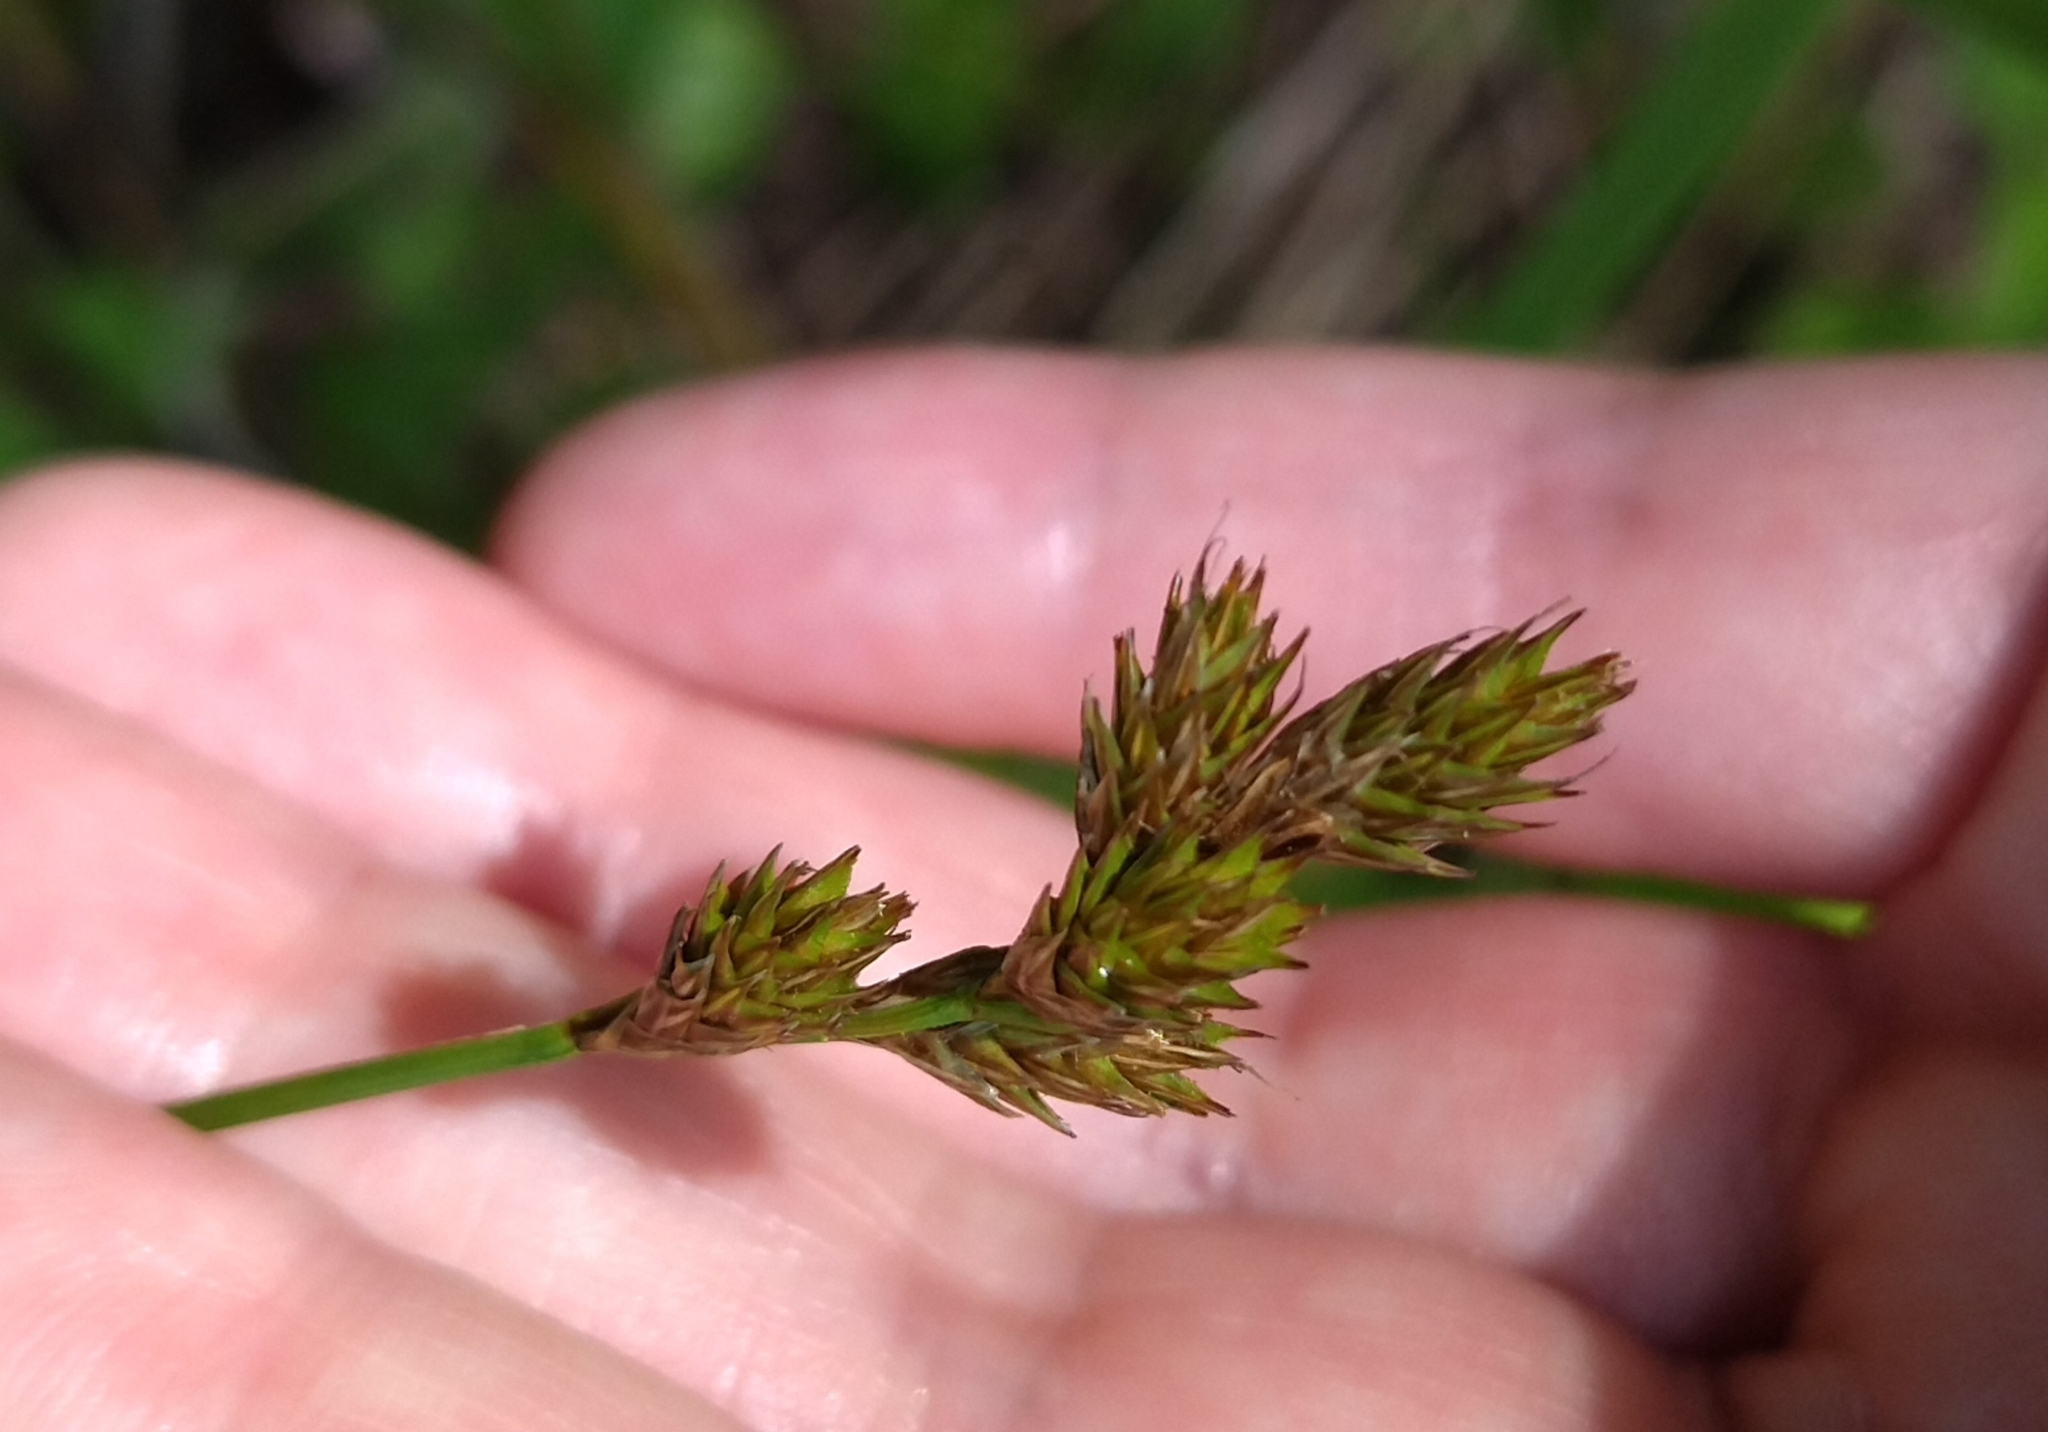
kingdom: Plantae
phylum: Tracheophyta
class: Liliopsida
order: Poales
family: Cyperaceae
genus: Carex
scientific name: Carex leporina
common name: Oval sedge
